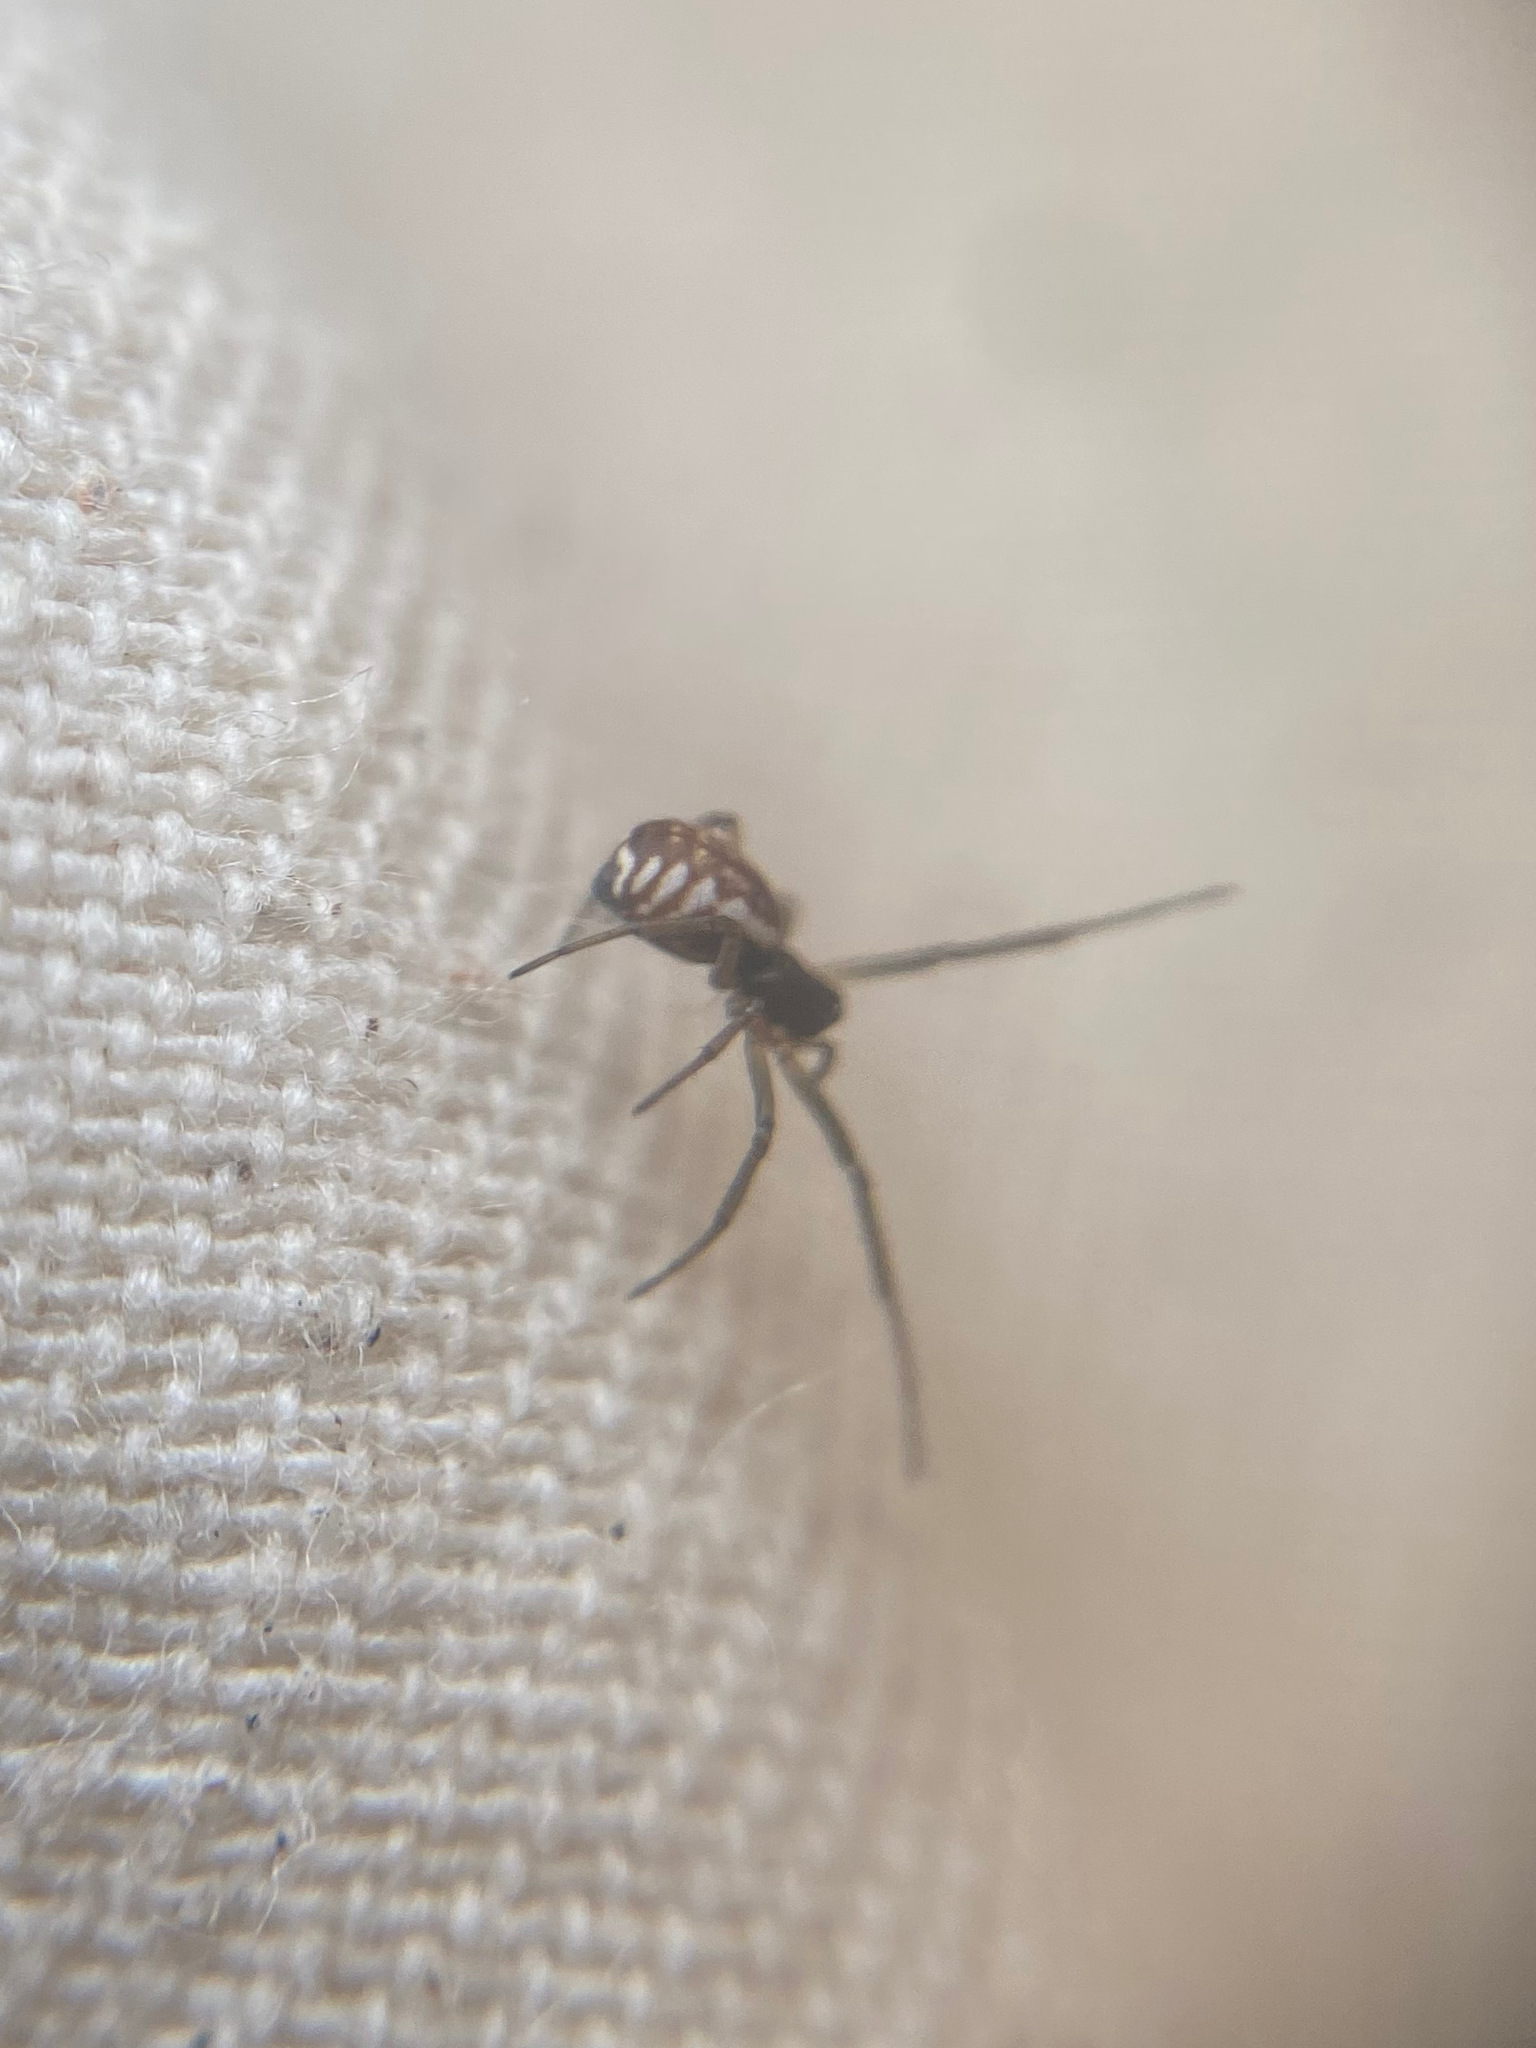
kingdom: Animalia
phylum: Arthropoda
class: Arachnida
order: Araneae
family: Linyphiidae
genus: Frontinella
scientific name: Frontinella pyramitela
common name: Bowl-and-doily spider
